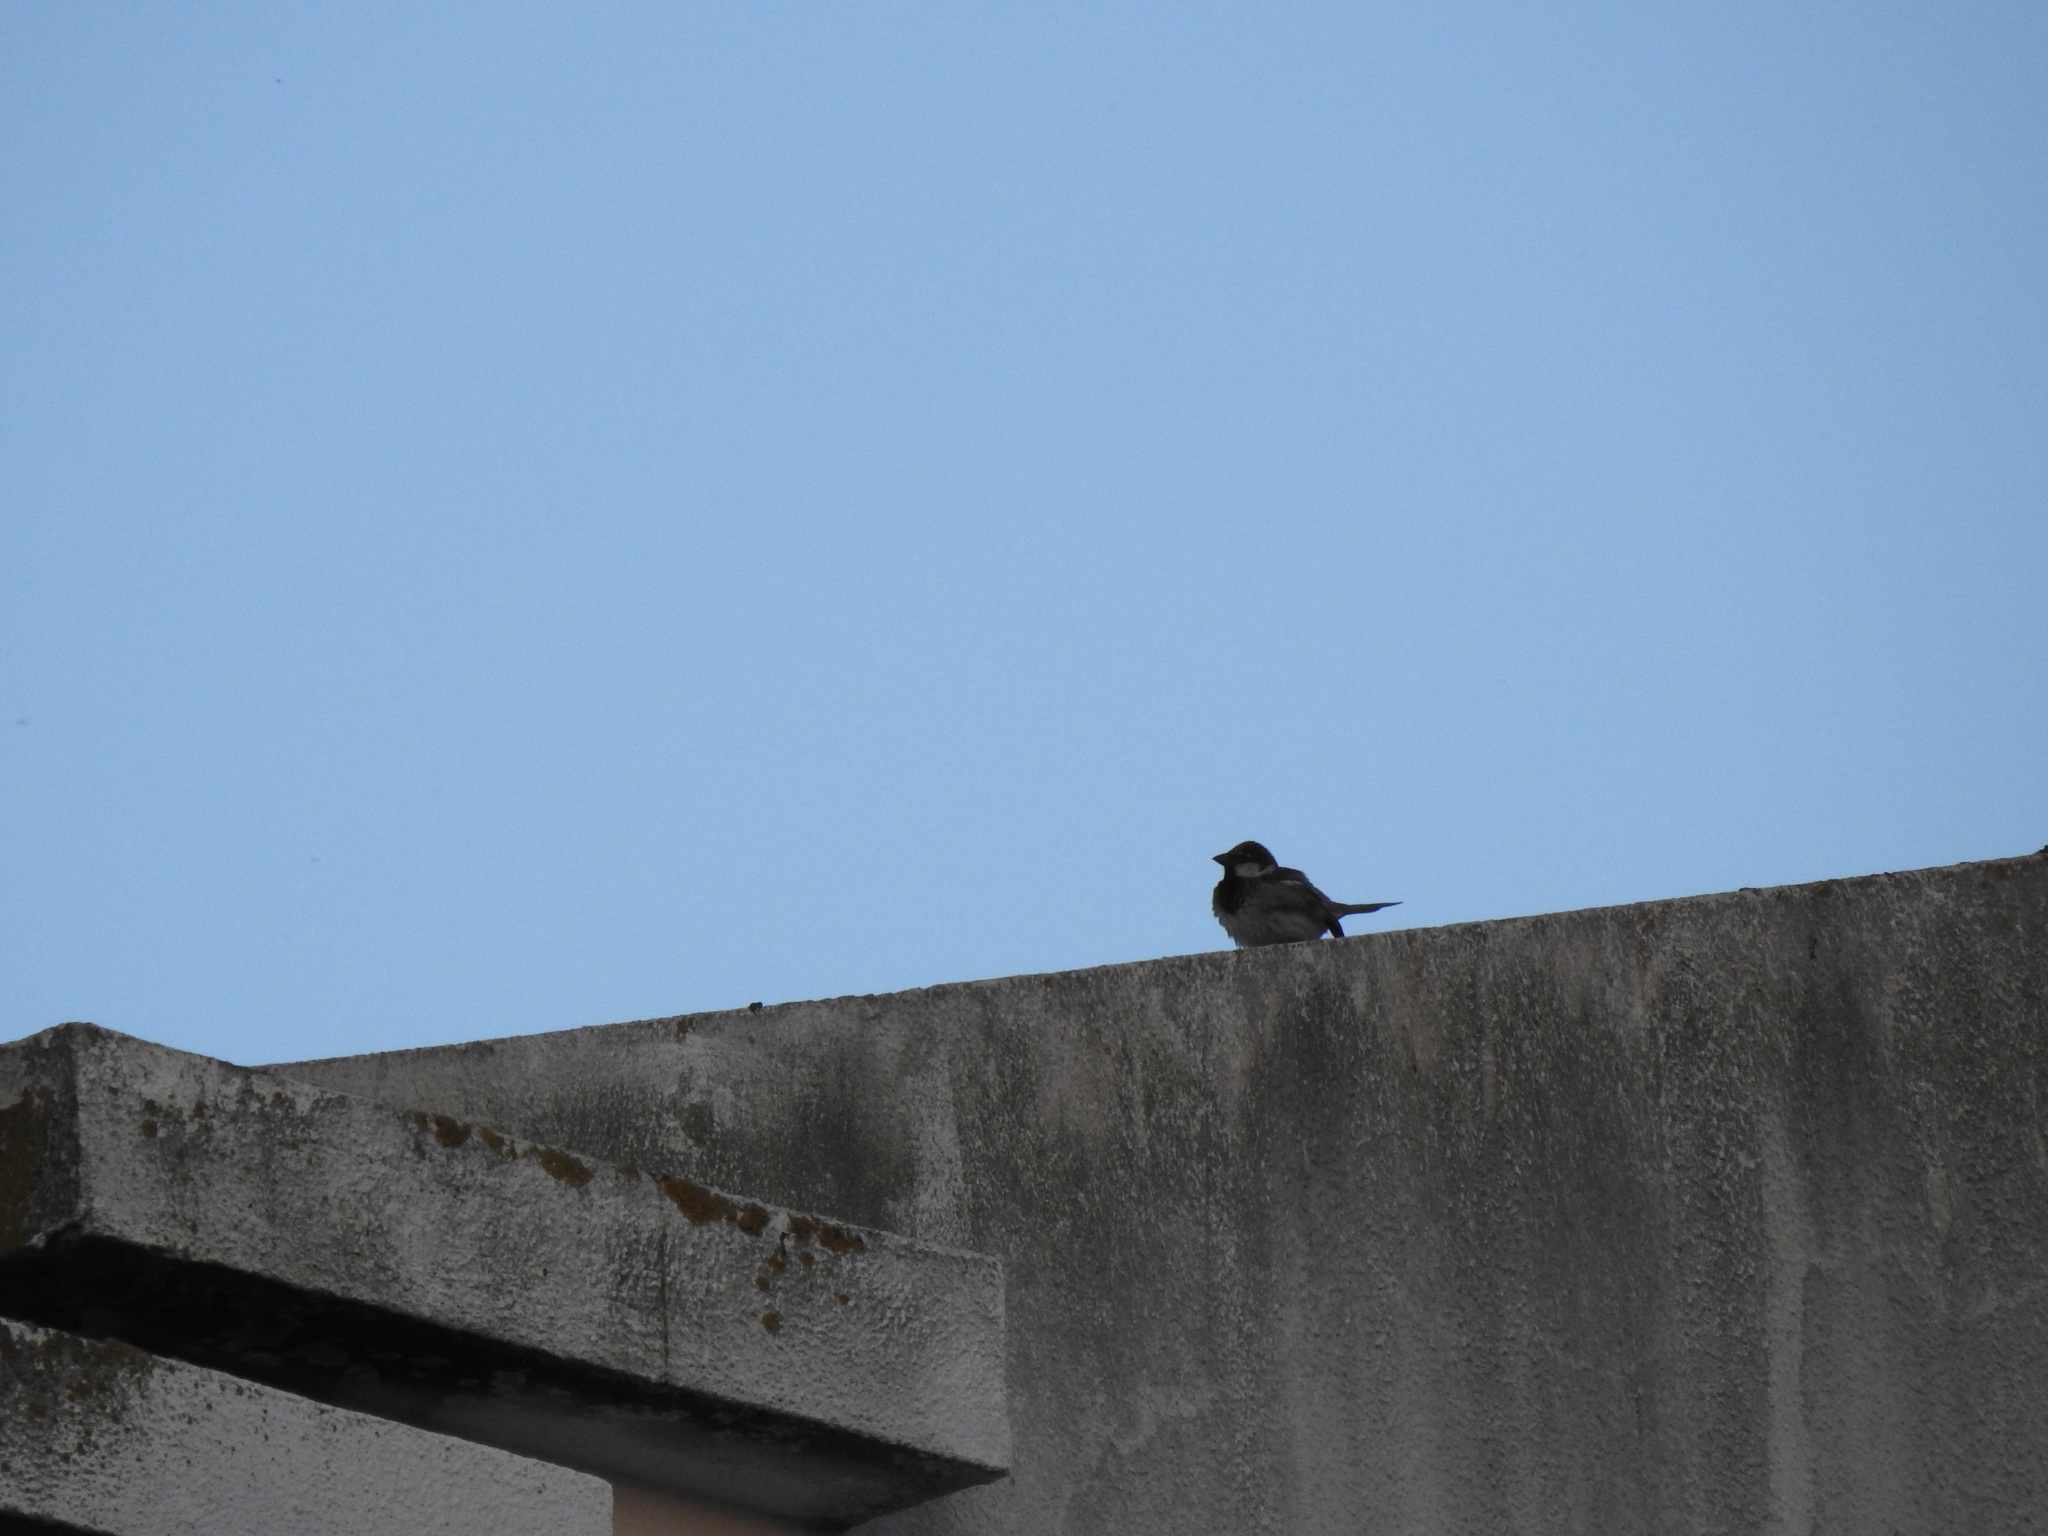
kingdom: Animalia
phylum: Chordata
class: Aves
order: Passeriformes
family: Passeridae
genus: Passer
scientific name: Passer domesticus
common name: House sparrow
